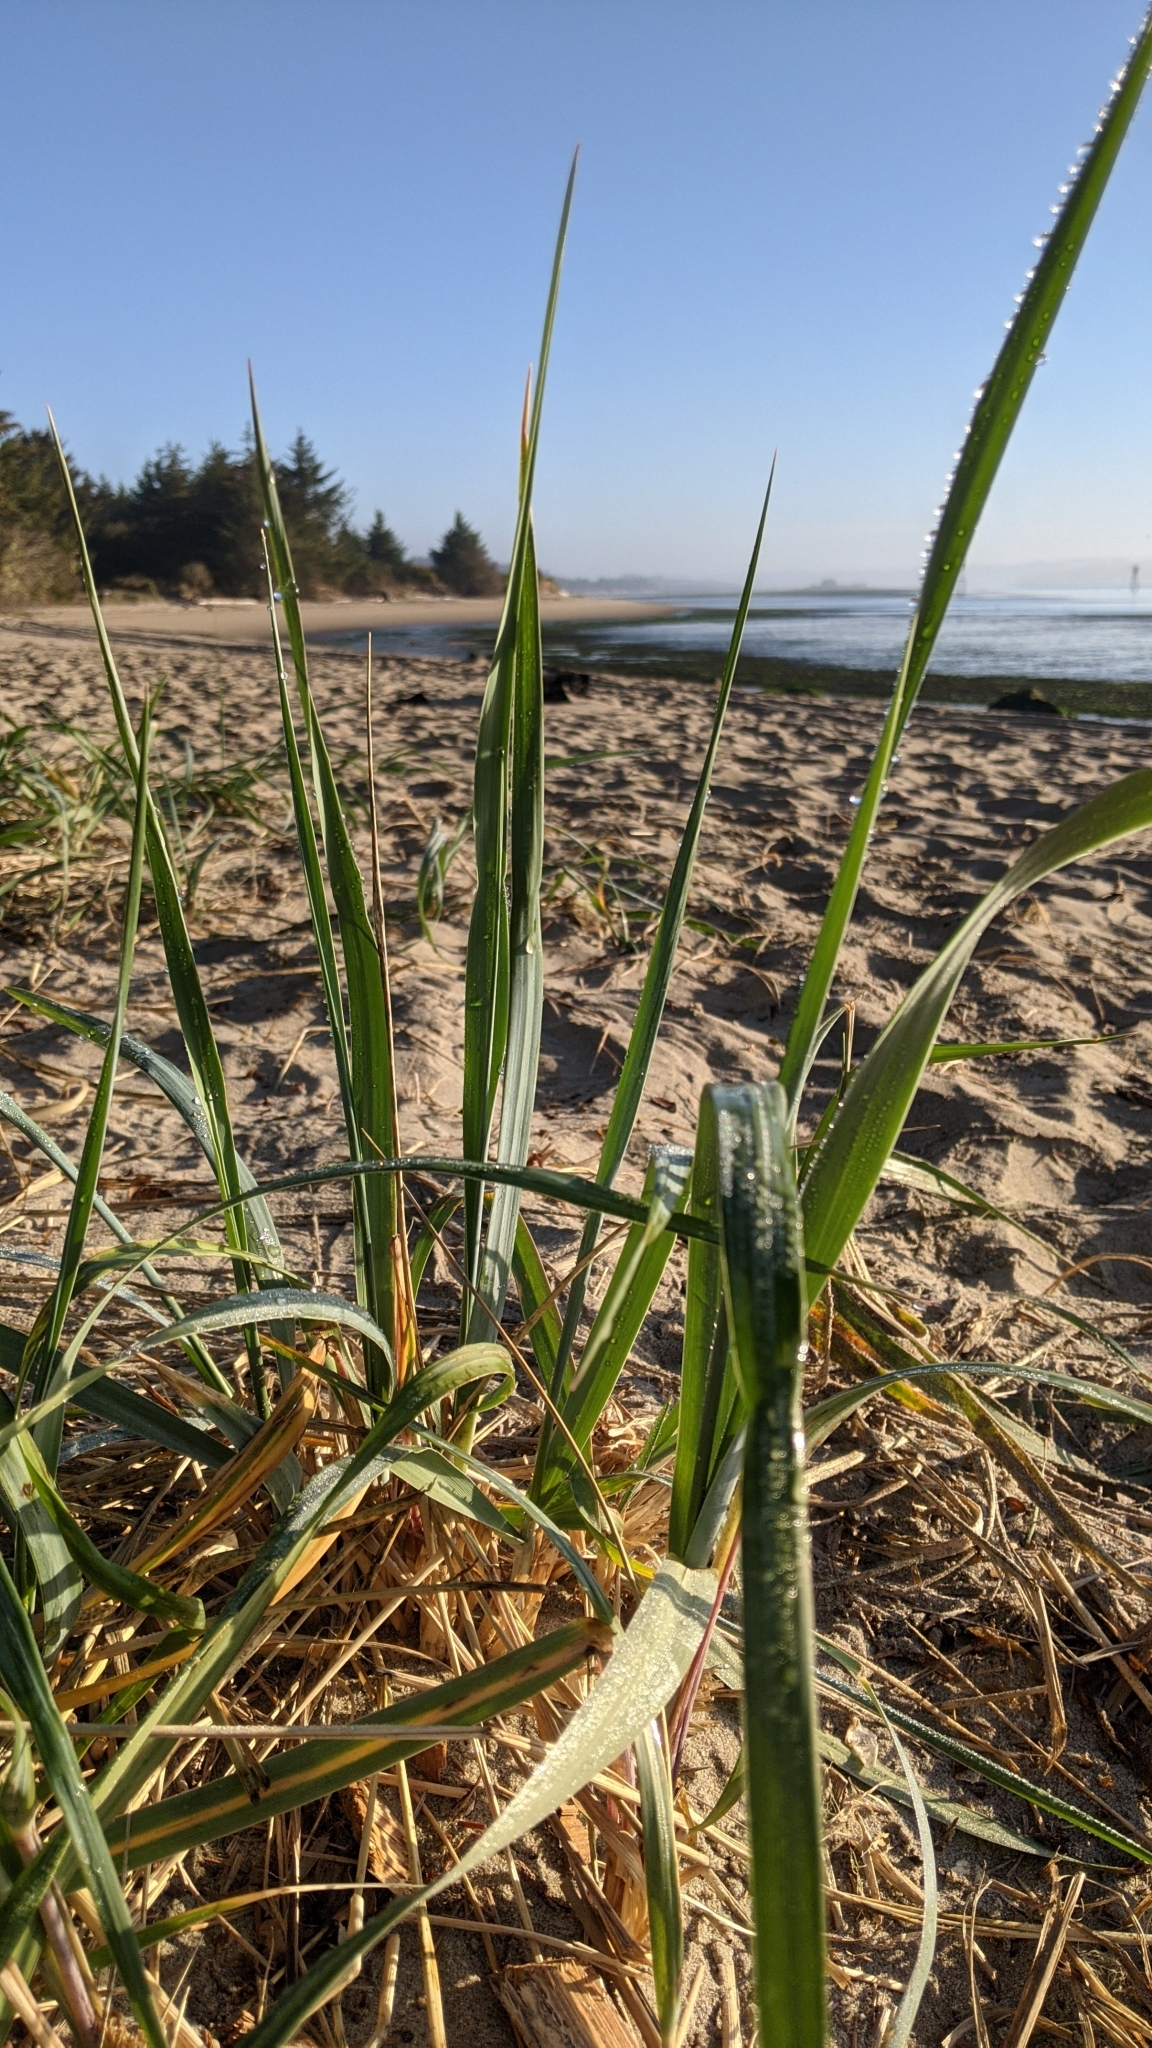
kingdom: Plantae
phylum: Tracheophyta
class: Liliopsida
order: Poales
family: Poaceae
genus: Leymus
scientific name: Leymus mollis
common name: American dune grass
